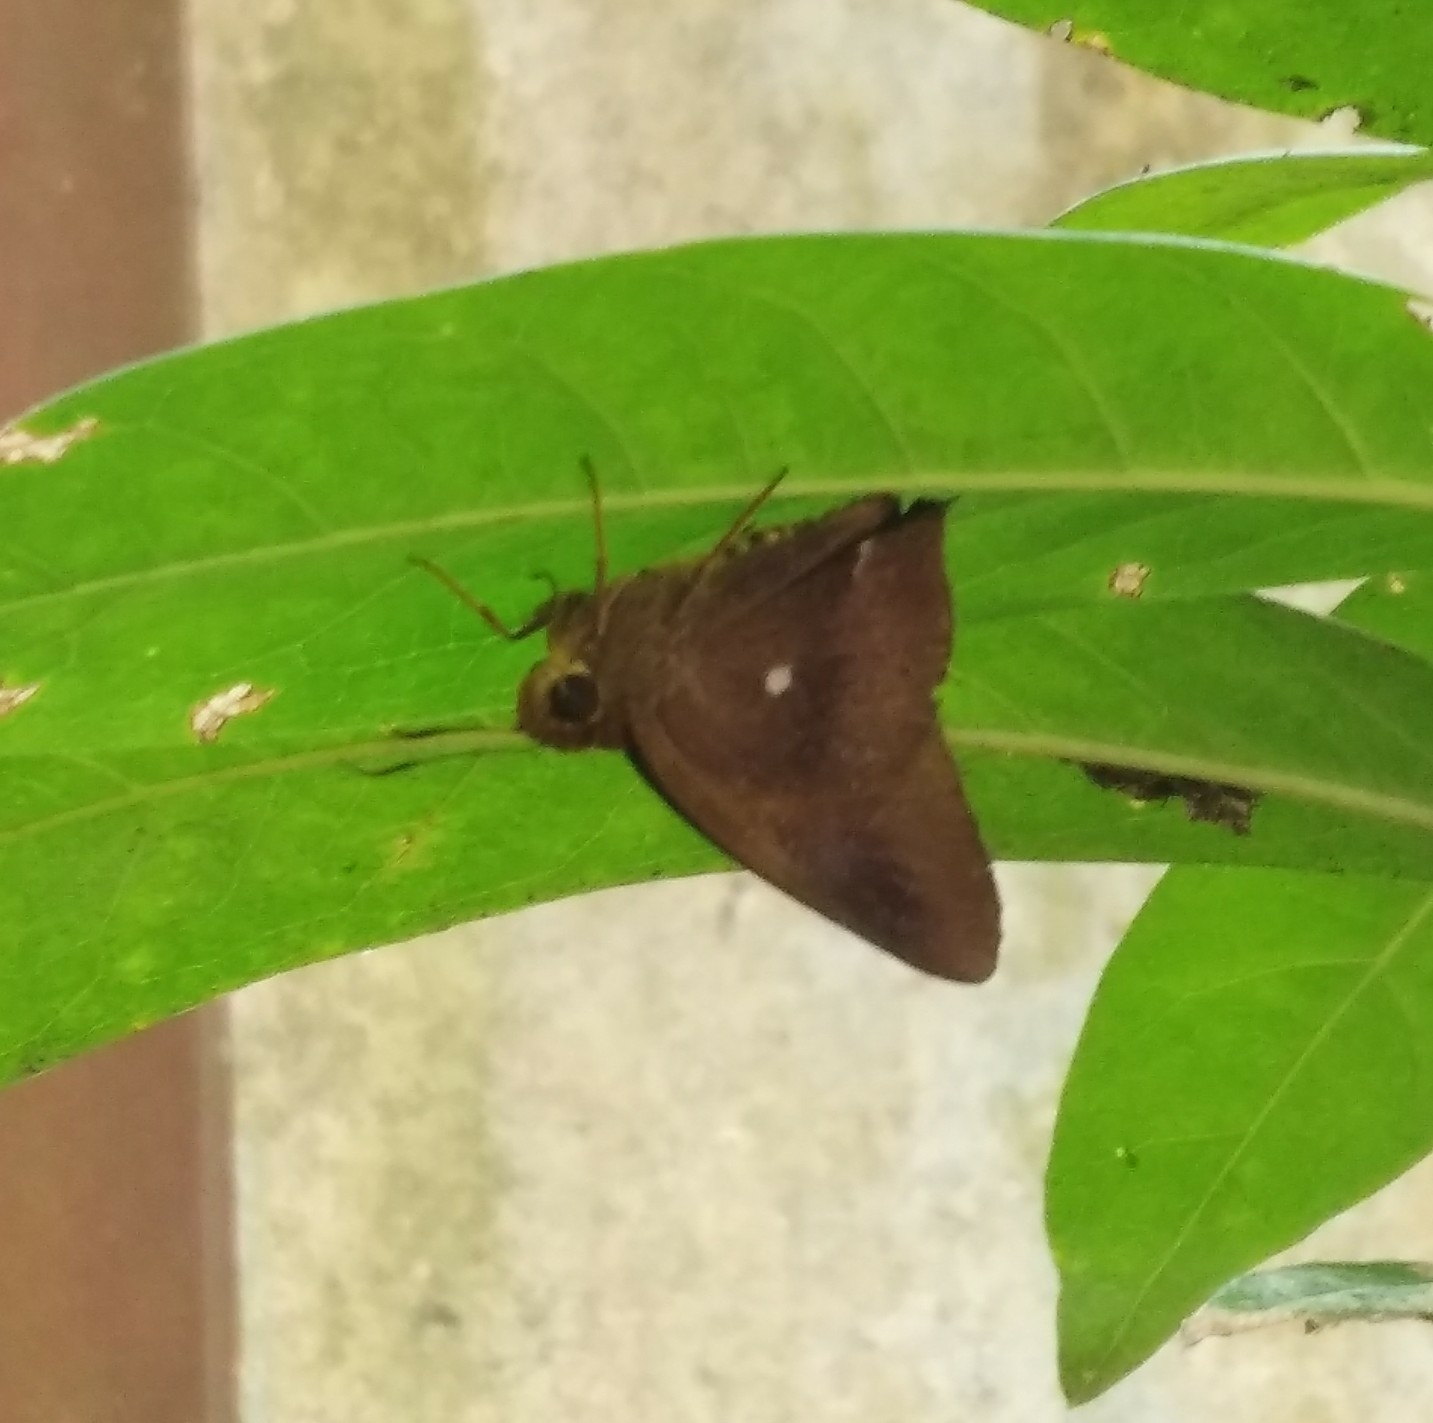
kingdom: Animalia
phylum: Arthropoda
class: Insecta
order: Lepidoptera
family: Hesperiidae
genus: Hasora
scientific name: Hasora badra
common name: Common awl
